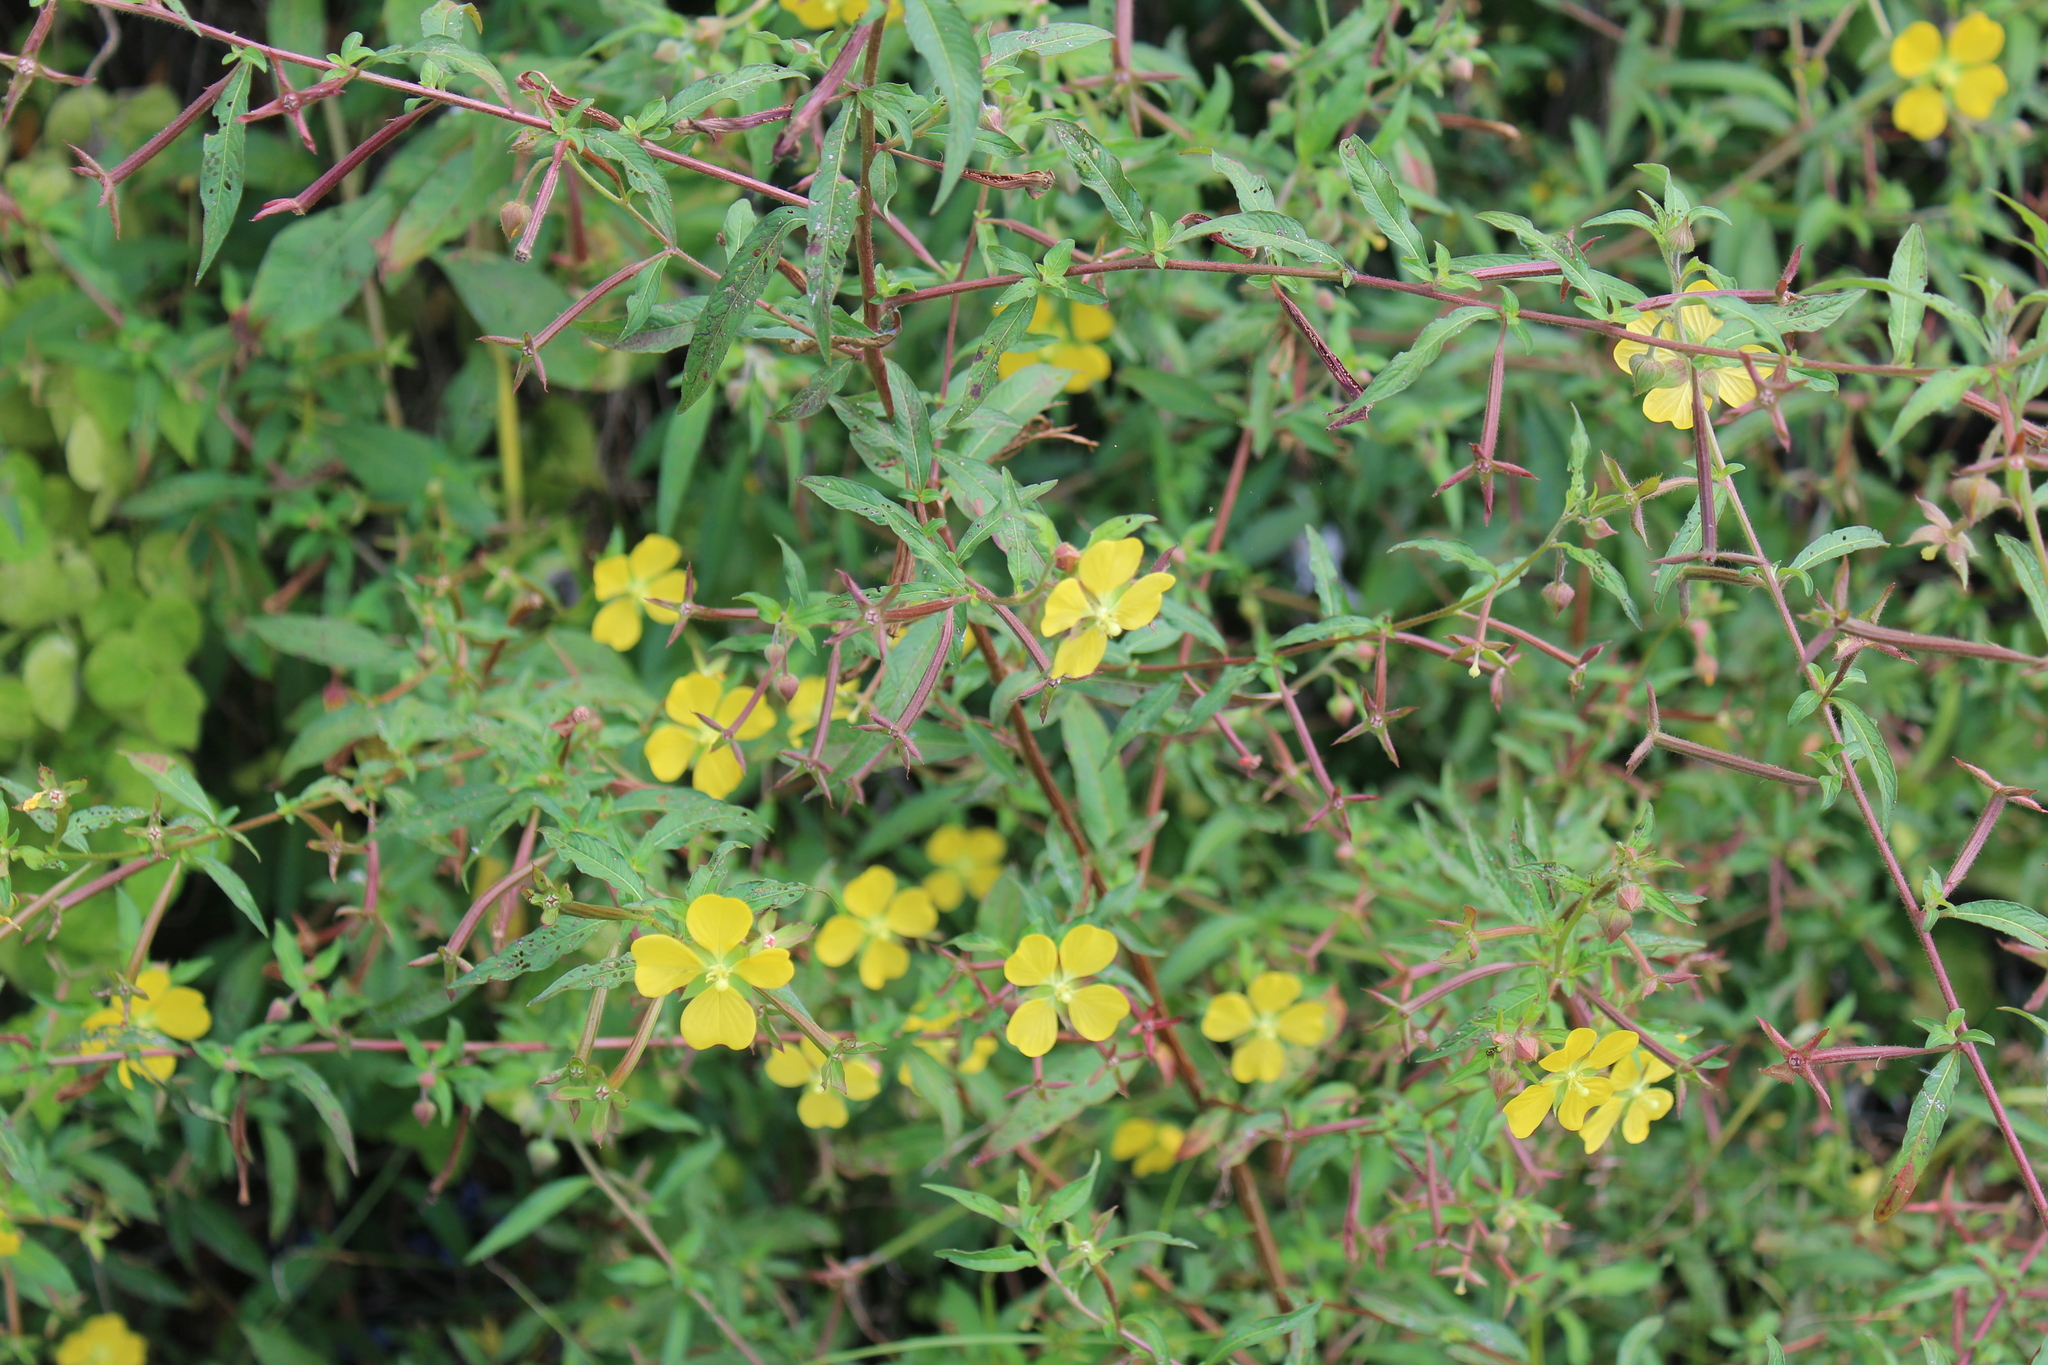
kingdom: Plantae
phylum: Tracheophyta
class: Magnoliopsida
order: Myrtales
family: Onagraceae
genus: Ludwigia
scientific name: Ludwigia octovalvis
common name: Water-primrose
